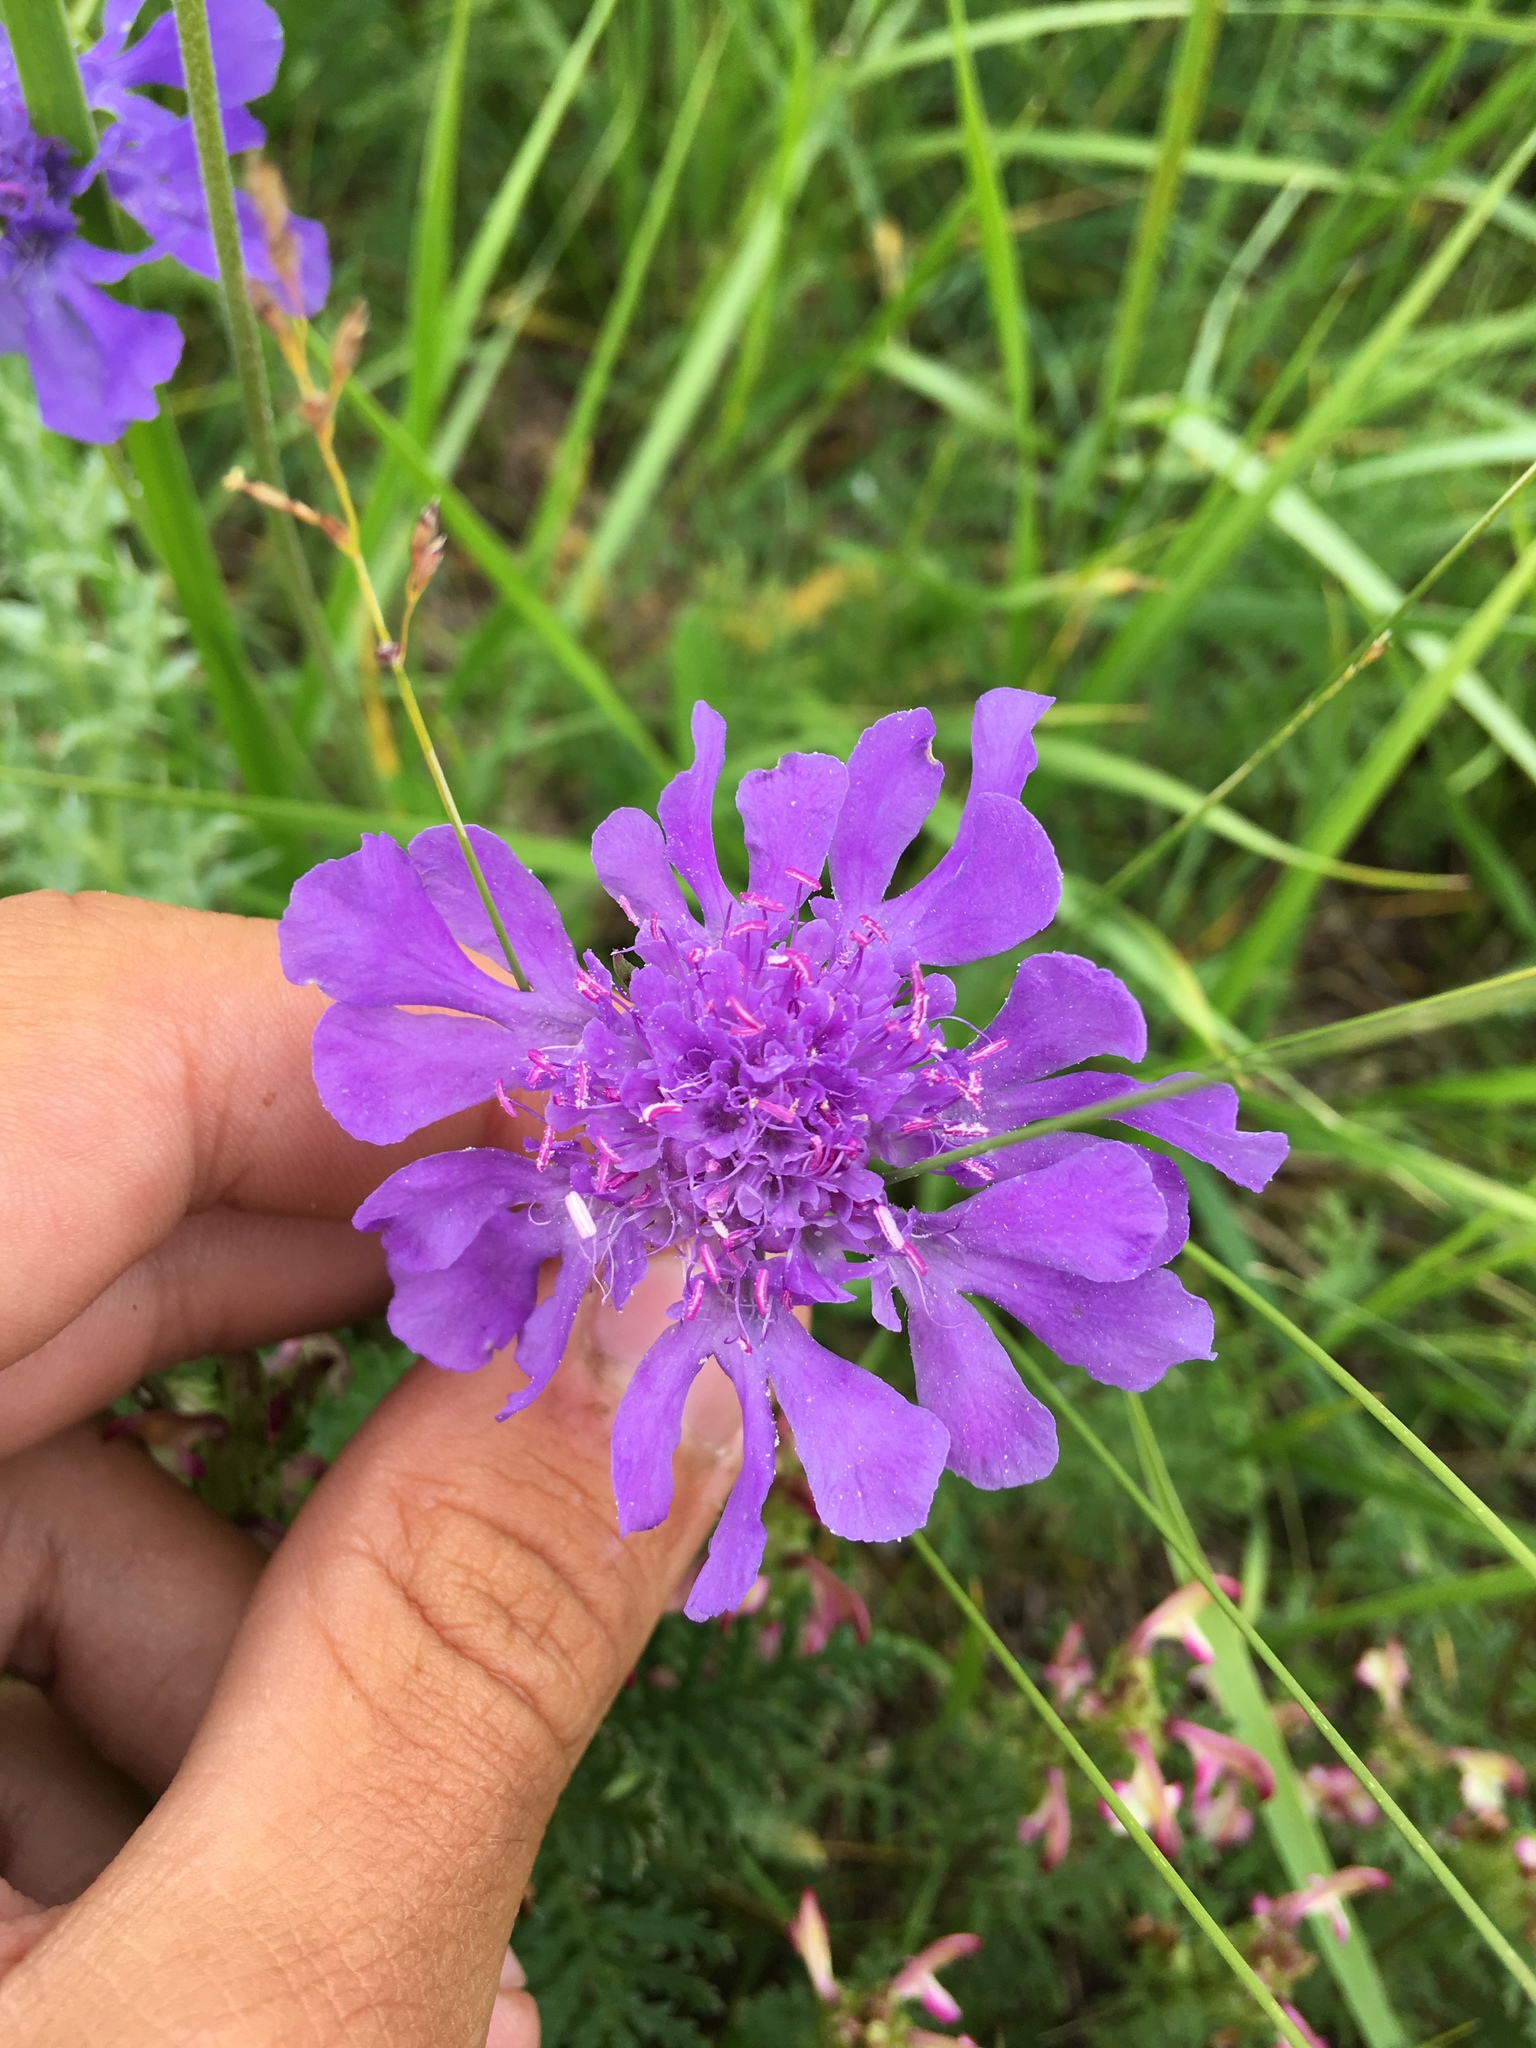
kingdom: Plantae
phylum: Tracheophyta
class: Magnoliopsida
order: Dipsacales
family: Caprifoliaceae
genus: Scabiosa
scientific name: Scabiosa comosa
